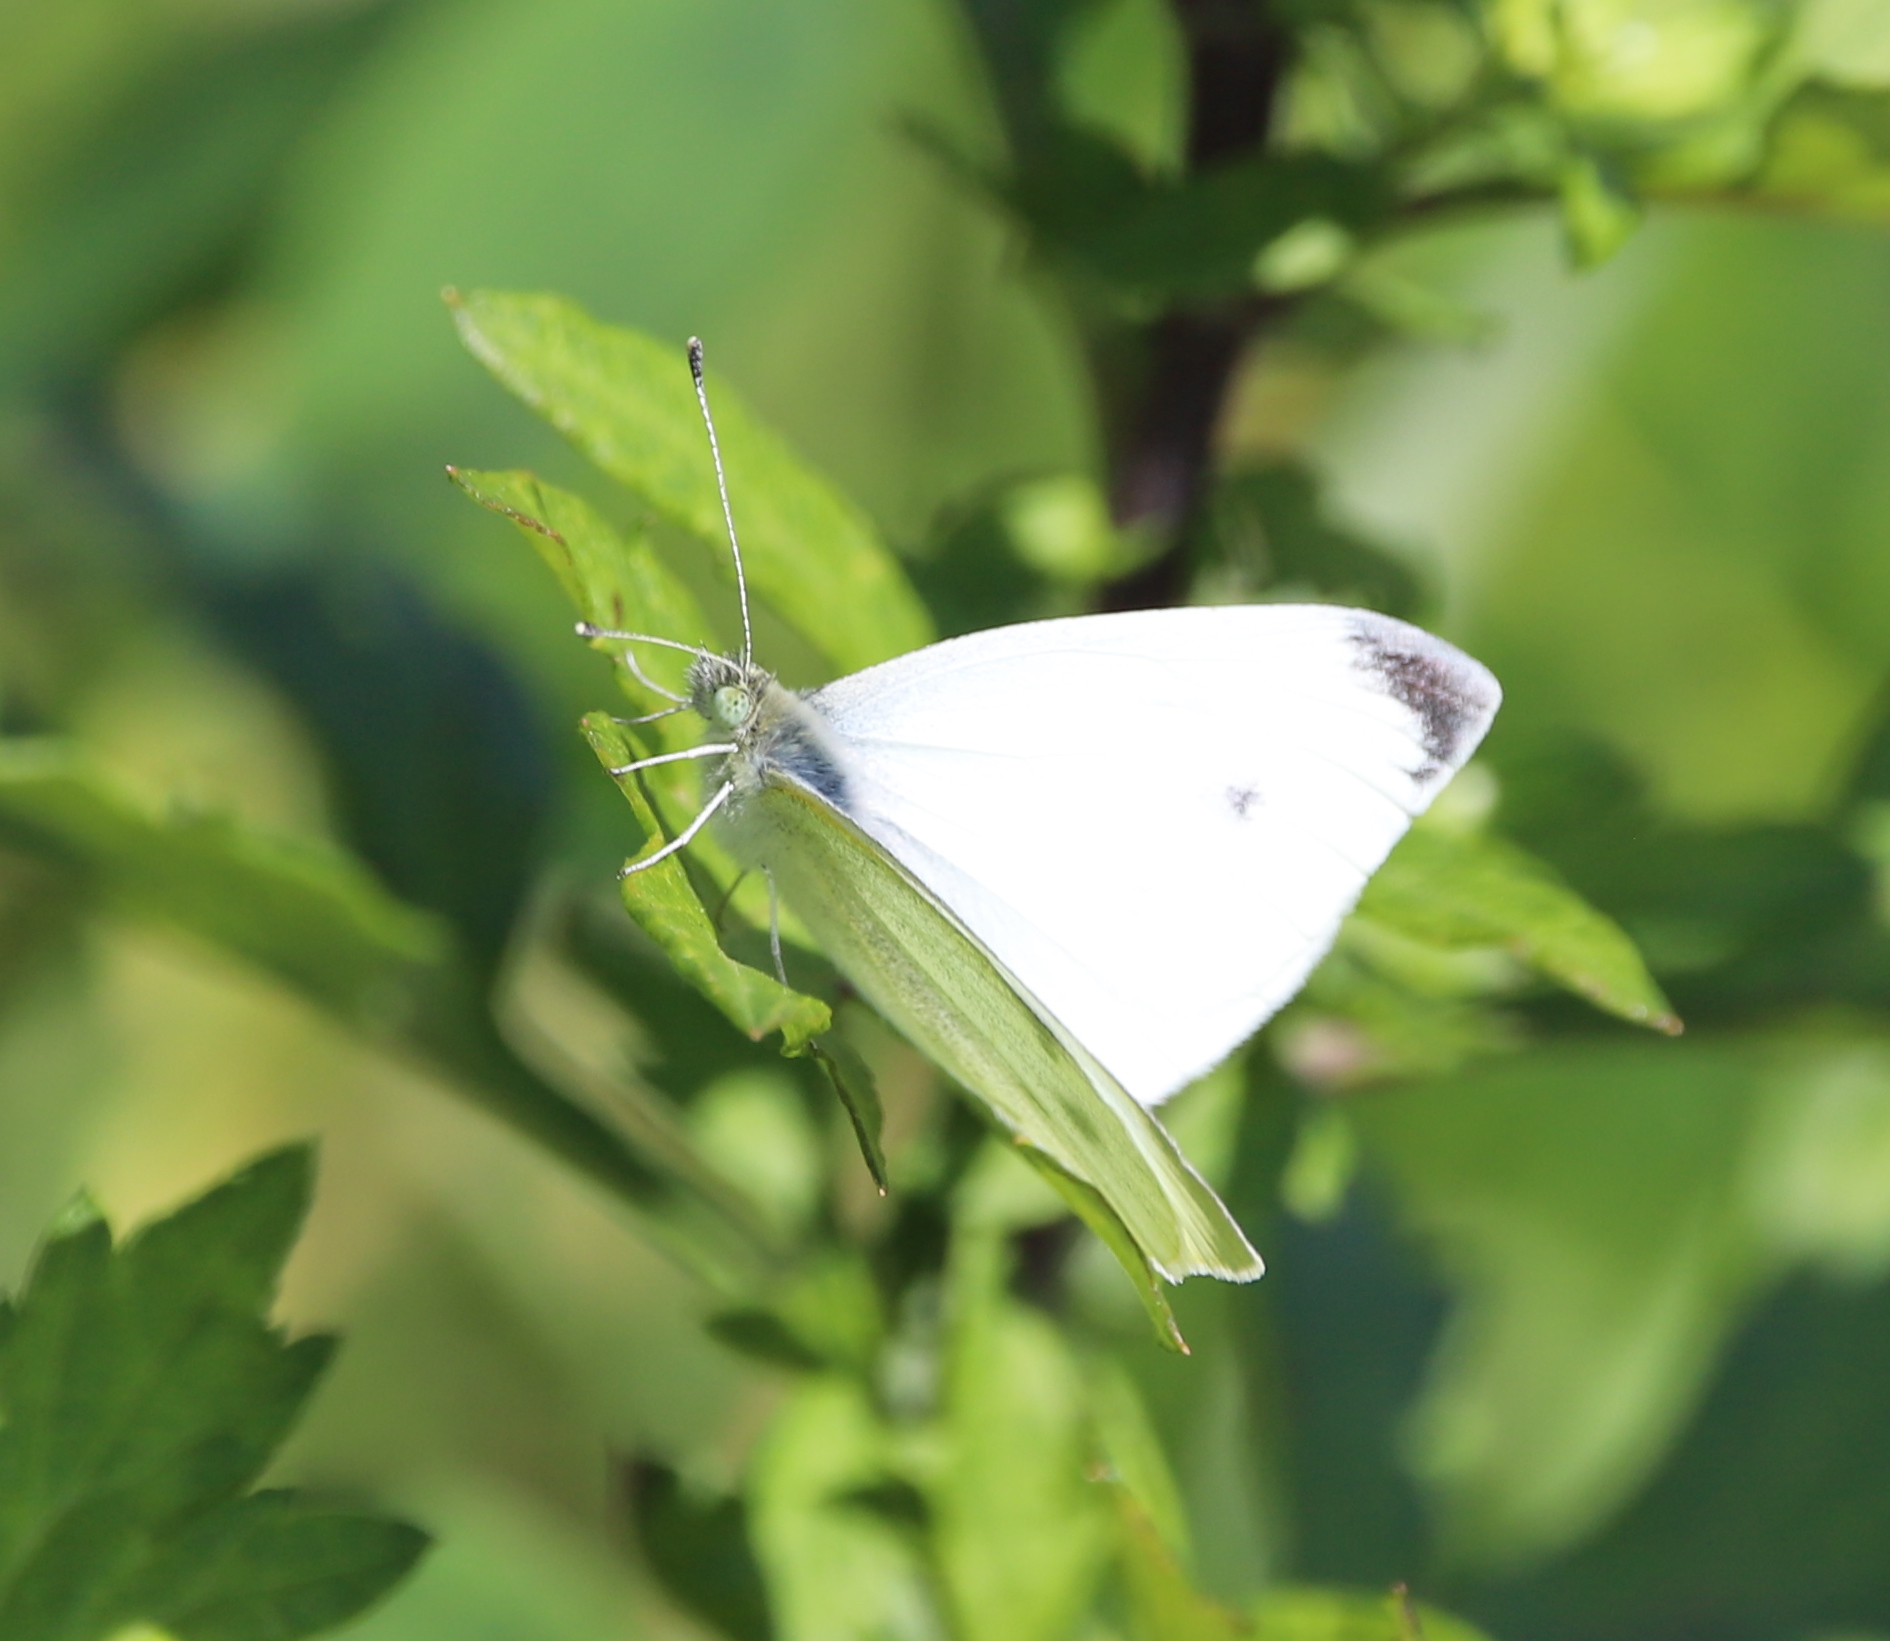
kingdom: Animalia
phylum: Arthropoda
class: Insecta
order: Lepidoptera
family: Pieridae
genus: Pieris
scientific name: Pieris rapae
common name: Small white
